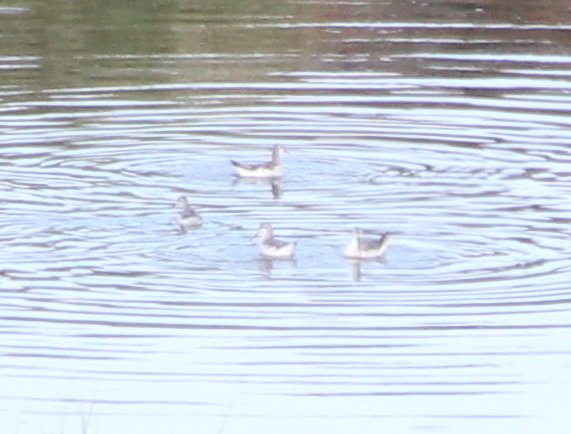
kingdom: Animalia
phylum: Chordata
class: Aves
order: Charadriiformes
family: Scolopacidae
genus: Phalaropus
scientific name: Phalaropus tricolor
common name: Wilson's phalarope
